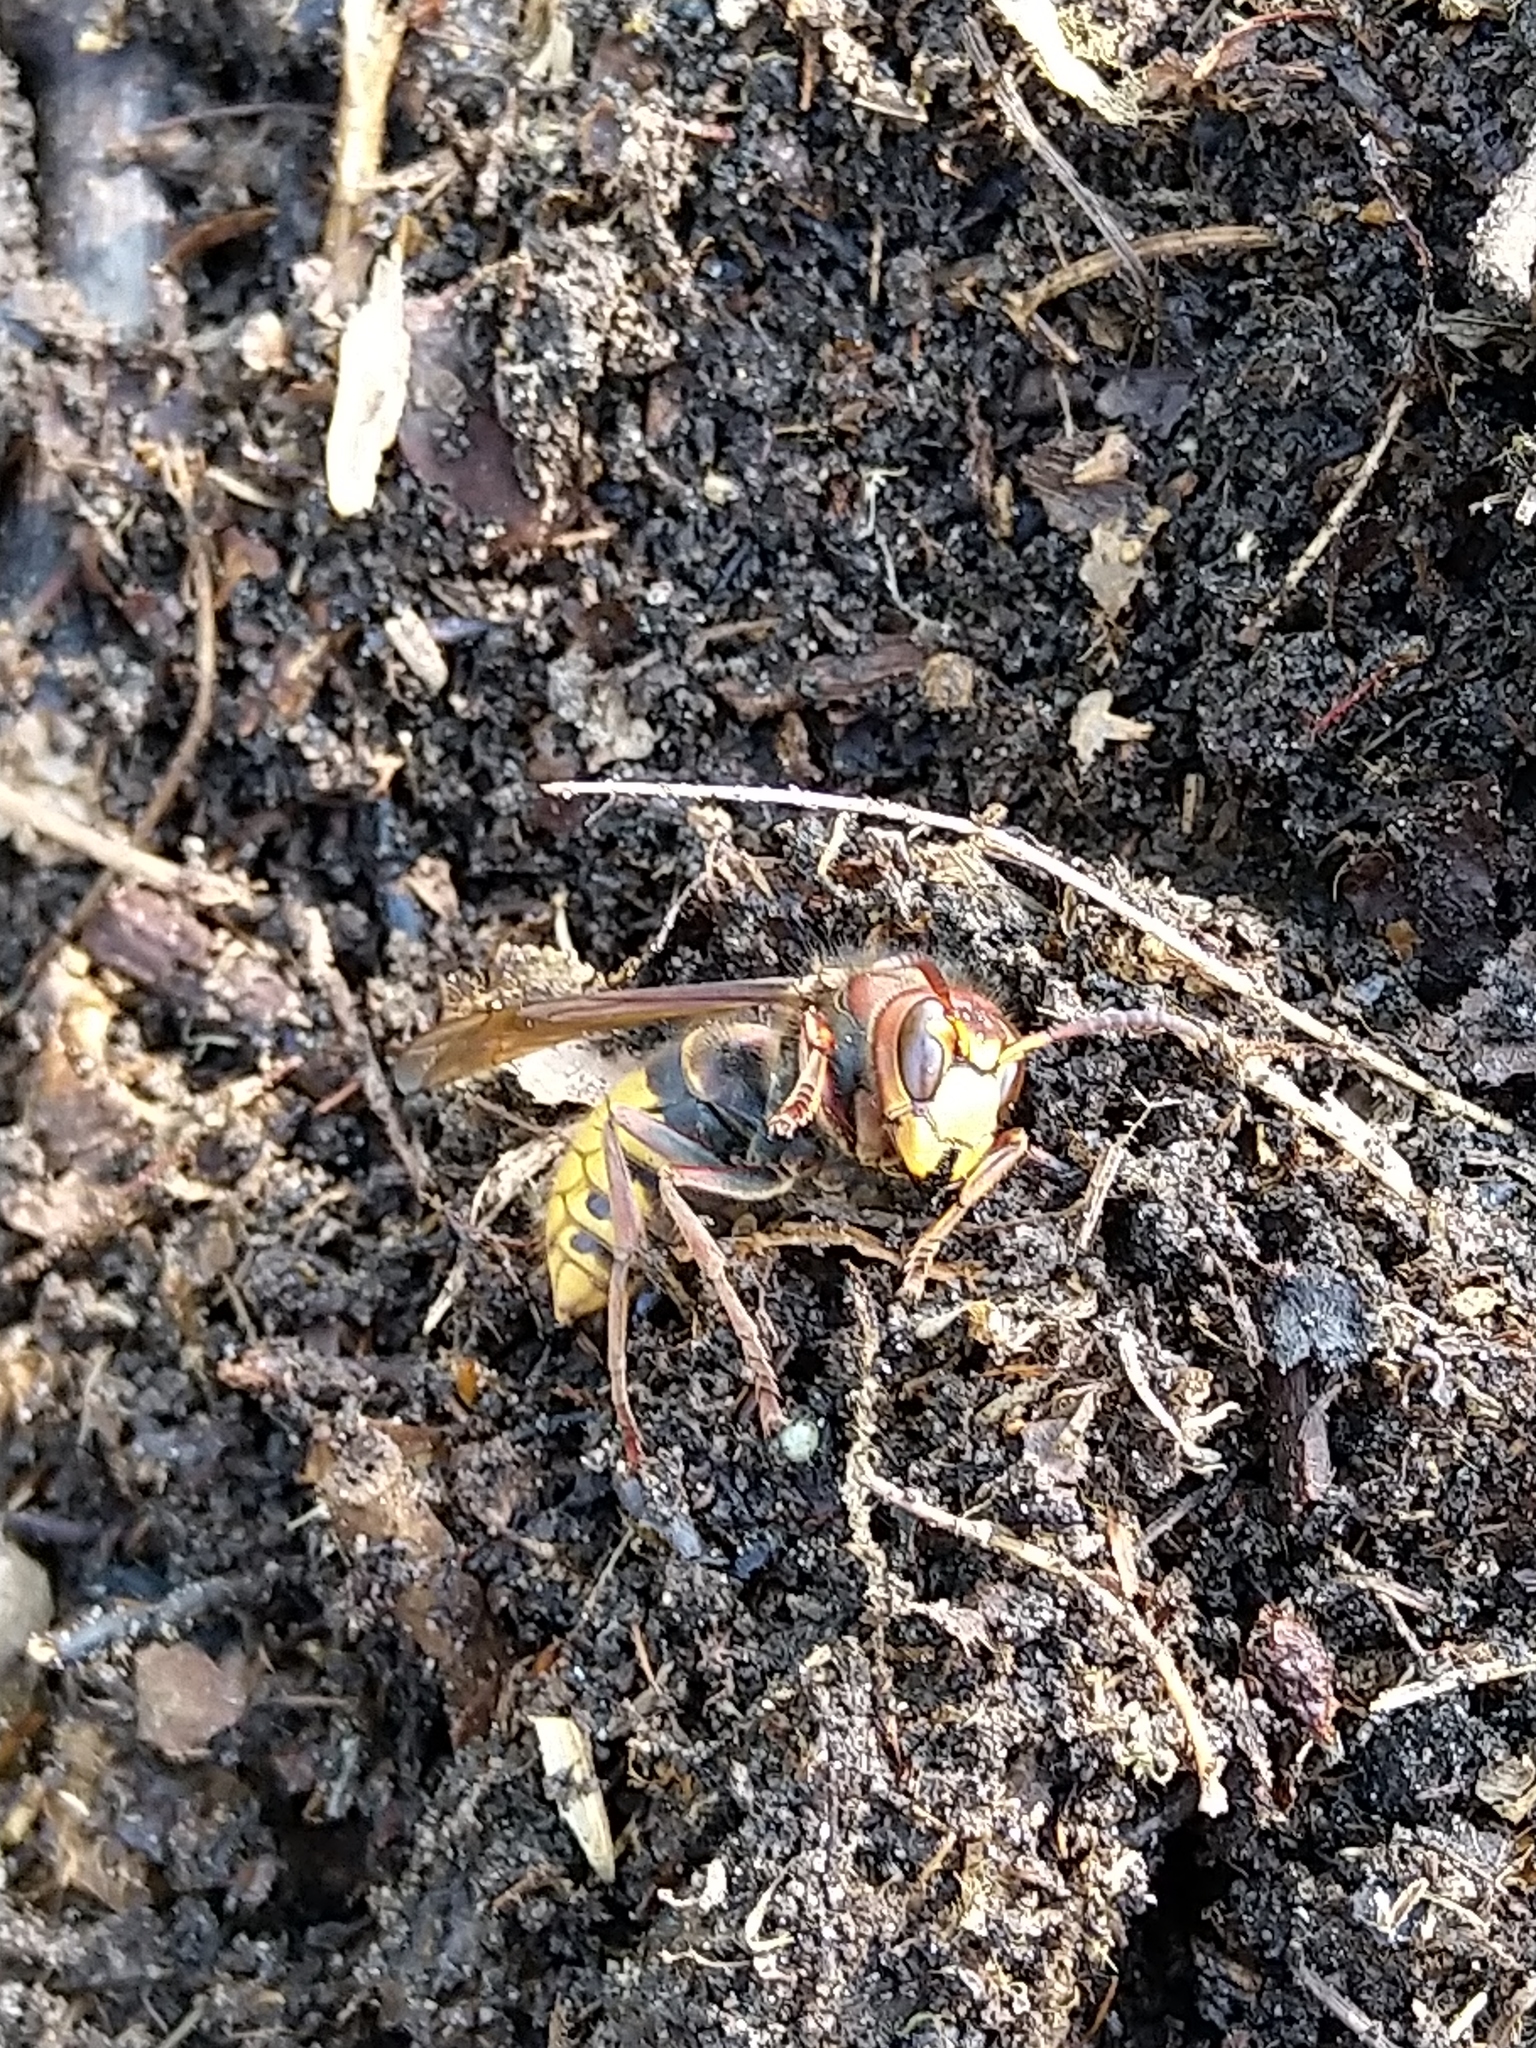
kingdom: Animalia
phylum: Arthropoda
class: Insecta
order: Hymenoptera
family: Vespidae
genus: Vespa
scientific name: Vespa crabro
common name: Hornet
